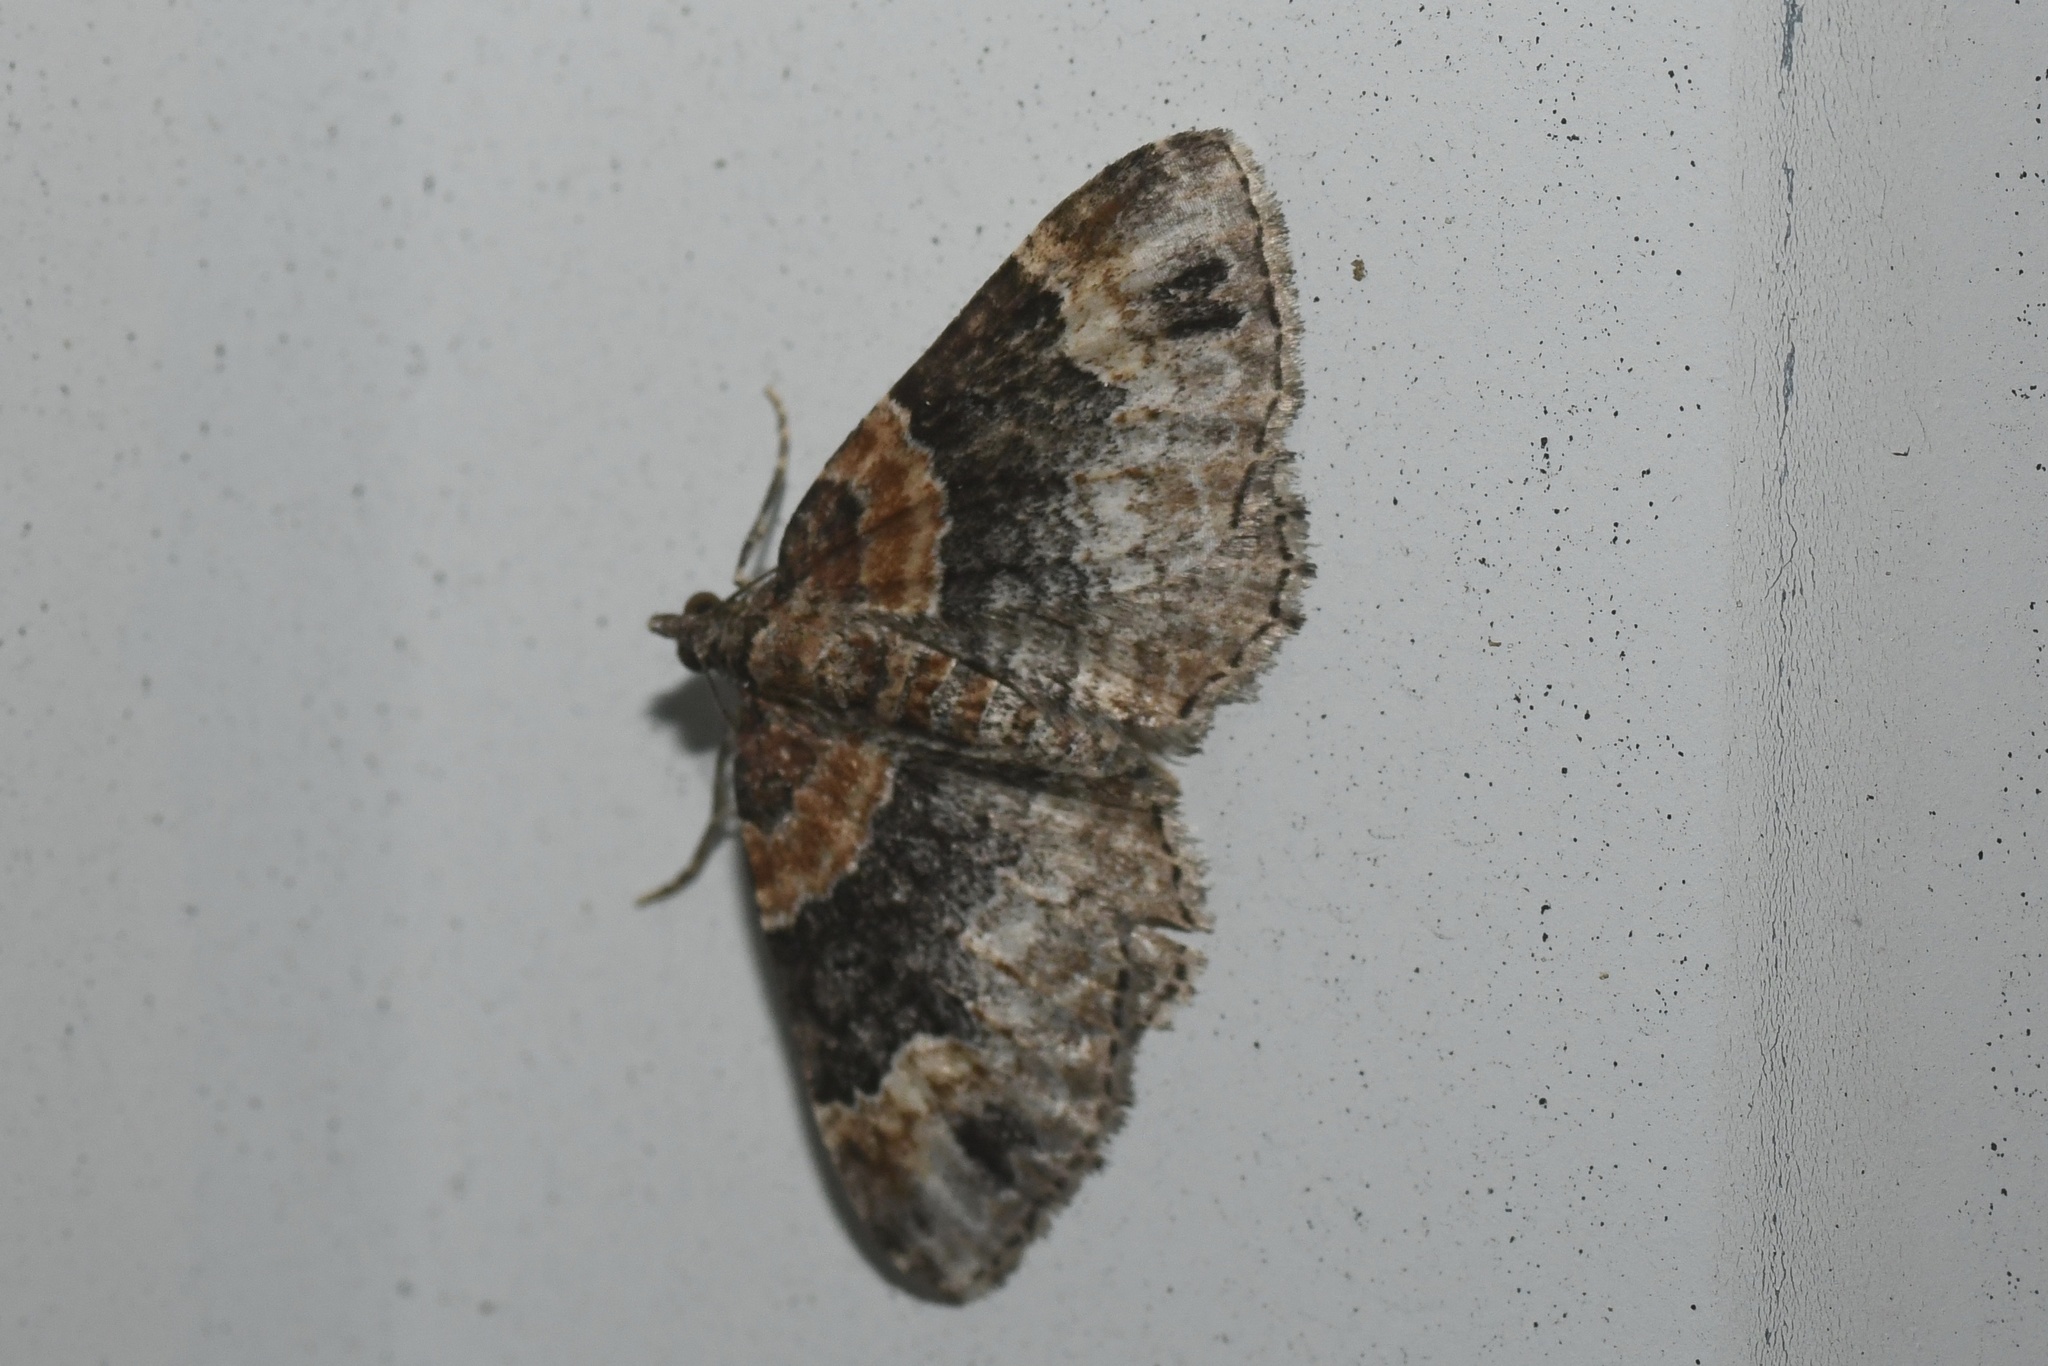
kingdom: Animalia
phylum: Arthropoda
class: Insecta
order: Lepidoptera
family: Geometridae
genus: Xanthorhoe
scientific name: Xanthorhoe ferrugata
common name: Dark-barred twin-spot carpet
